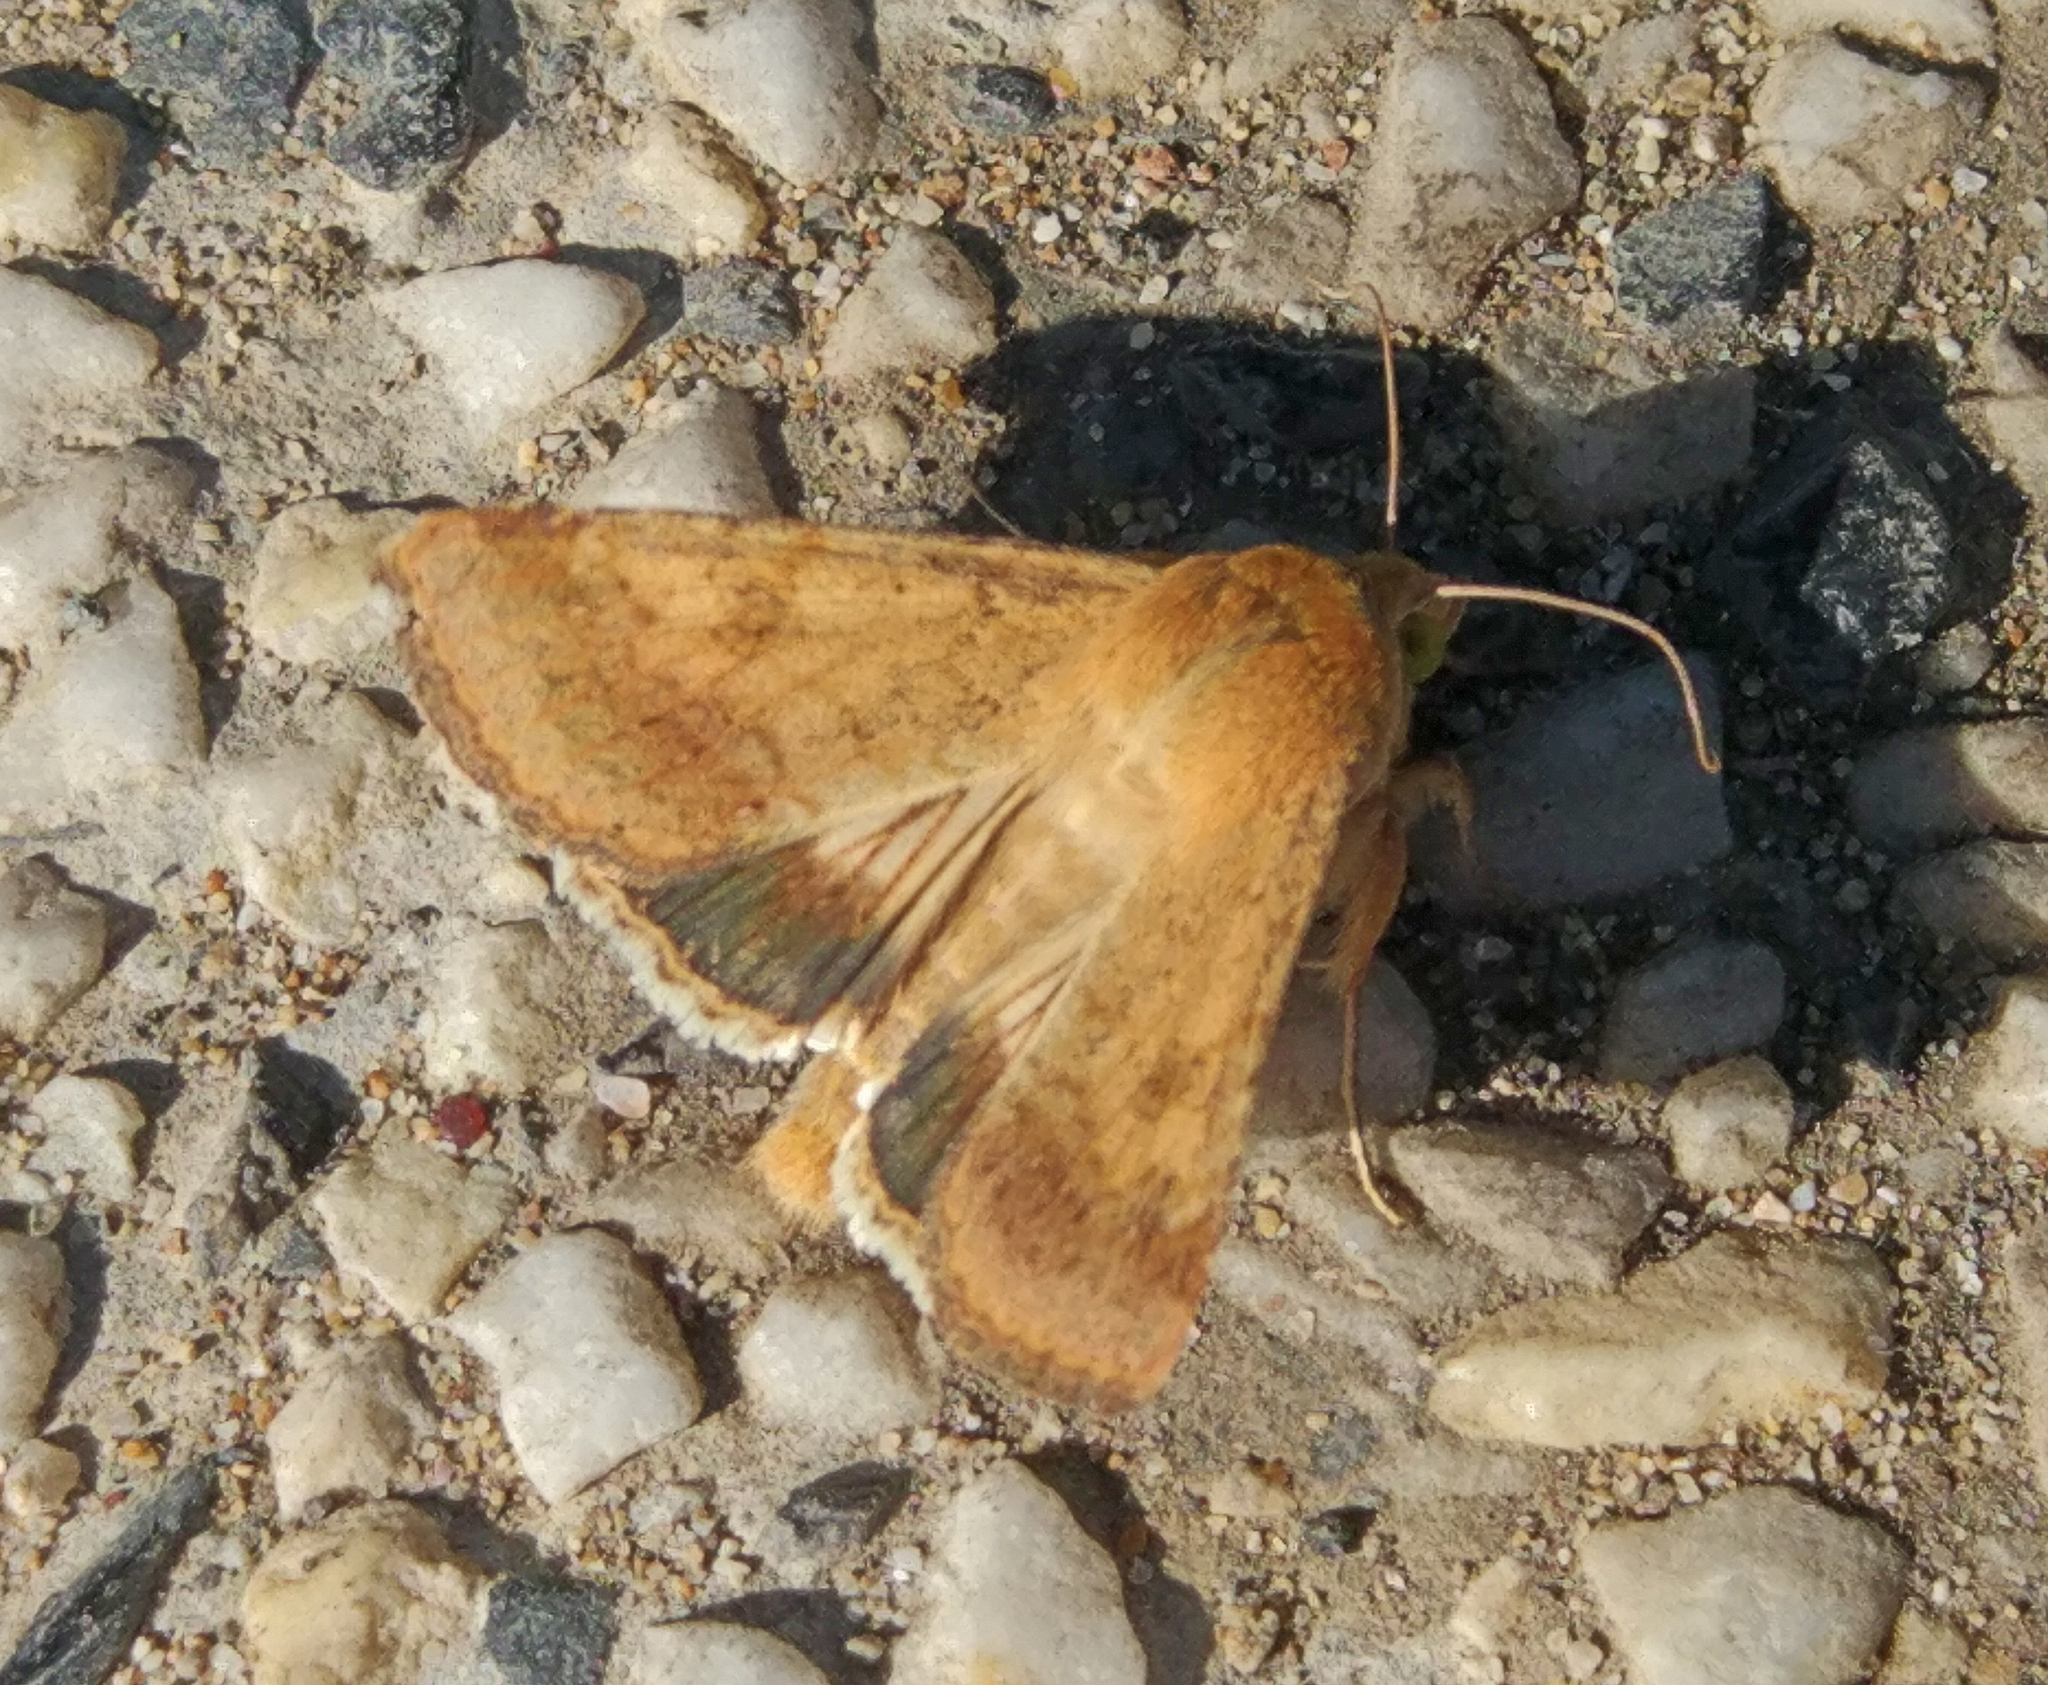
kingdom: Animalia
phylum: Arthropoda
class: Insecta
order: Lepidoptera
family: Noctuidae
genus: Helicoverpa
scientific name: Helicoverpa armigera
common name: Cotton bollworm
